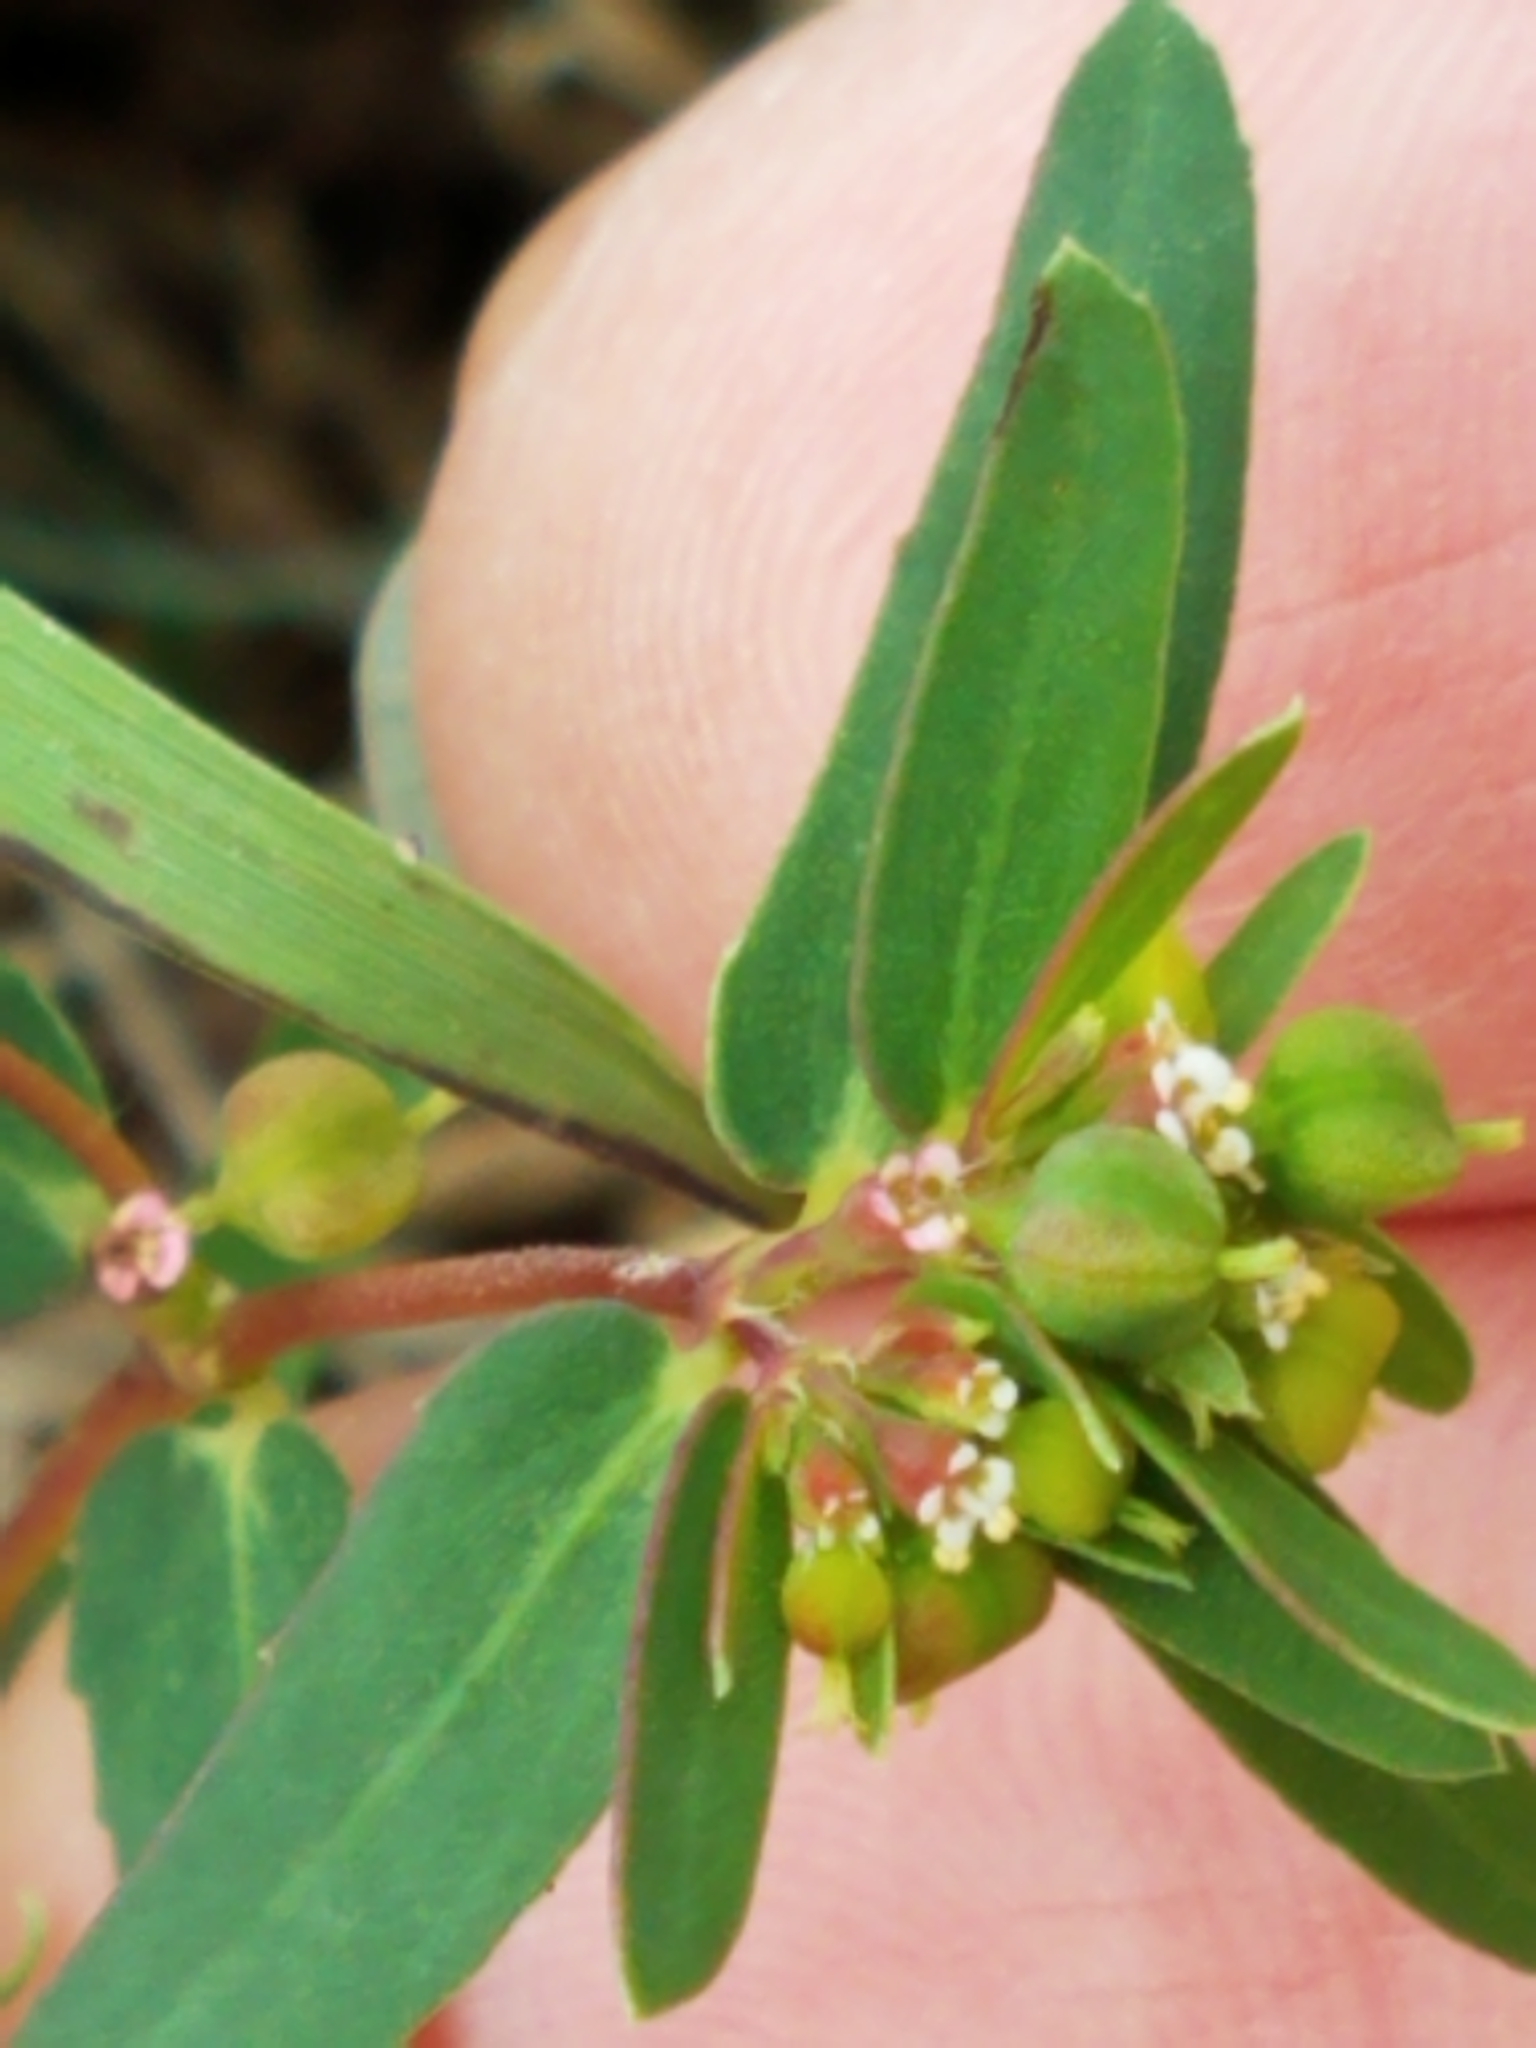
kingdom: Plantae
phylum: Tracheophyta
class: Magnoliopsida
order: Malpighiales
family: Euphorbiaceae
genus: Euphorbia
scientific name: Euphorbia nutans
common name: Eyebane
